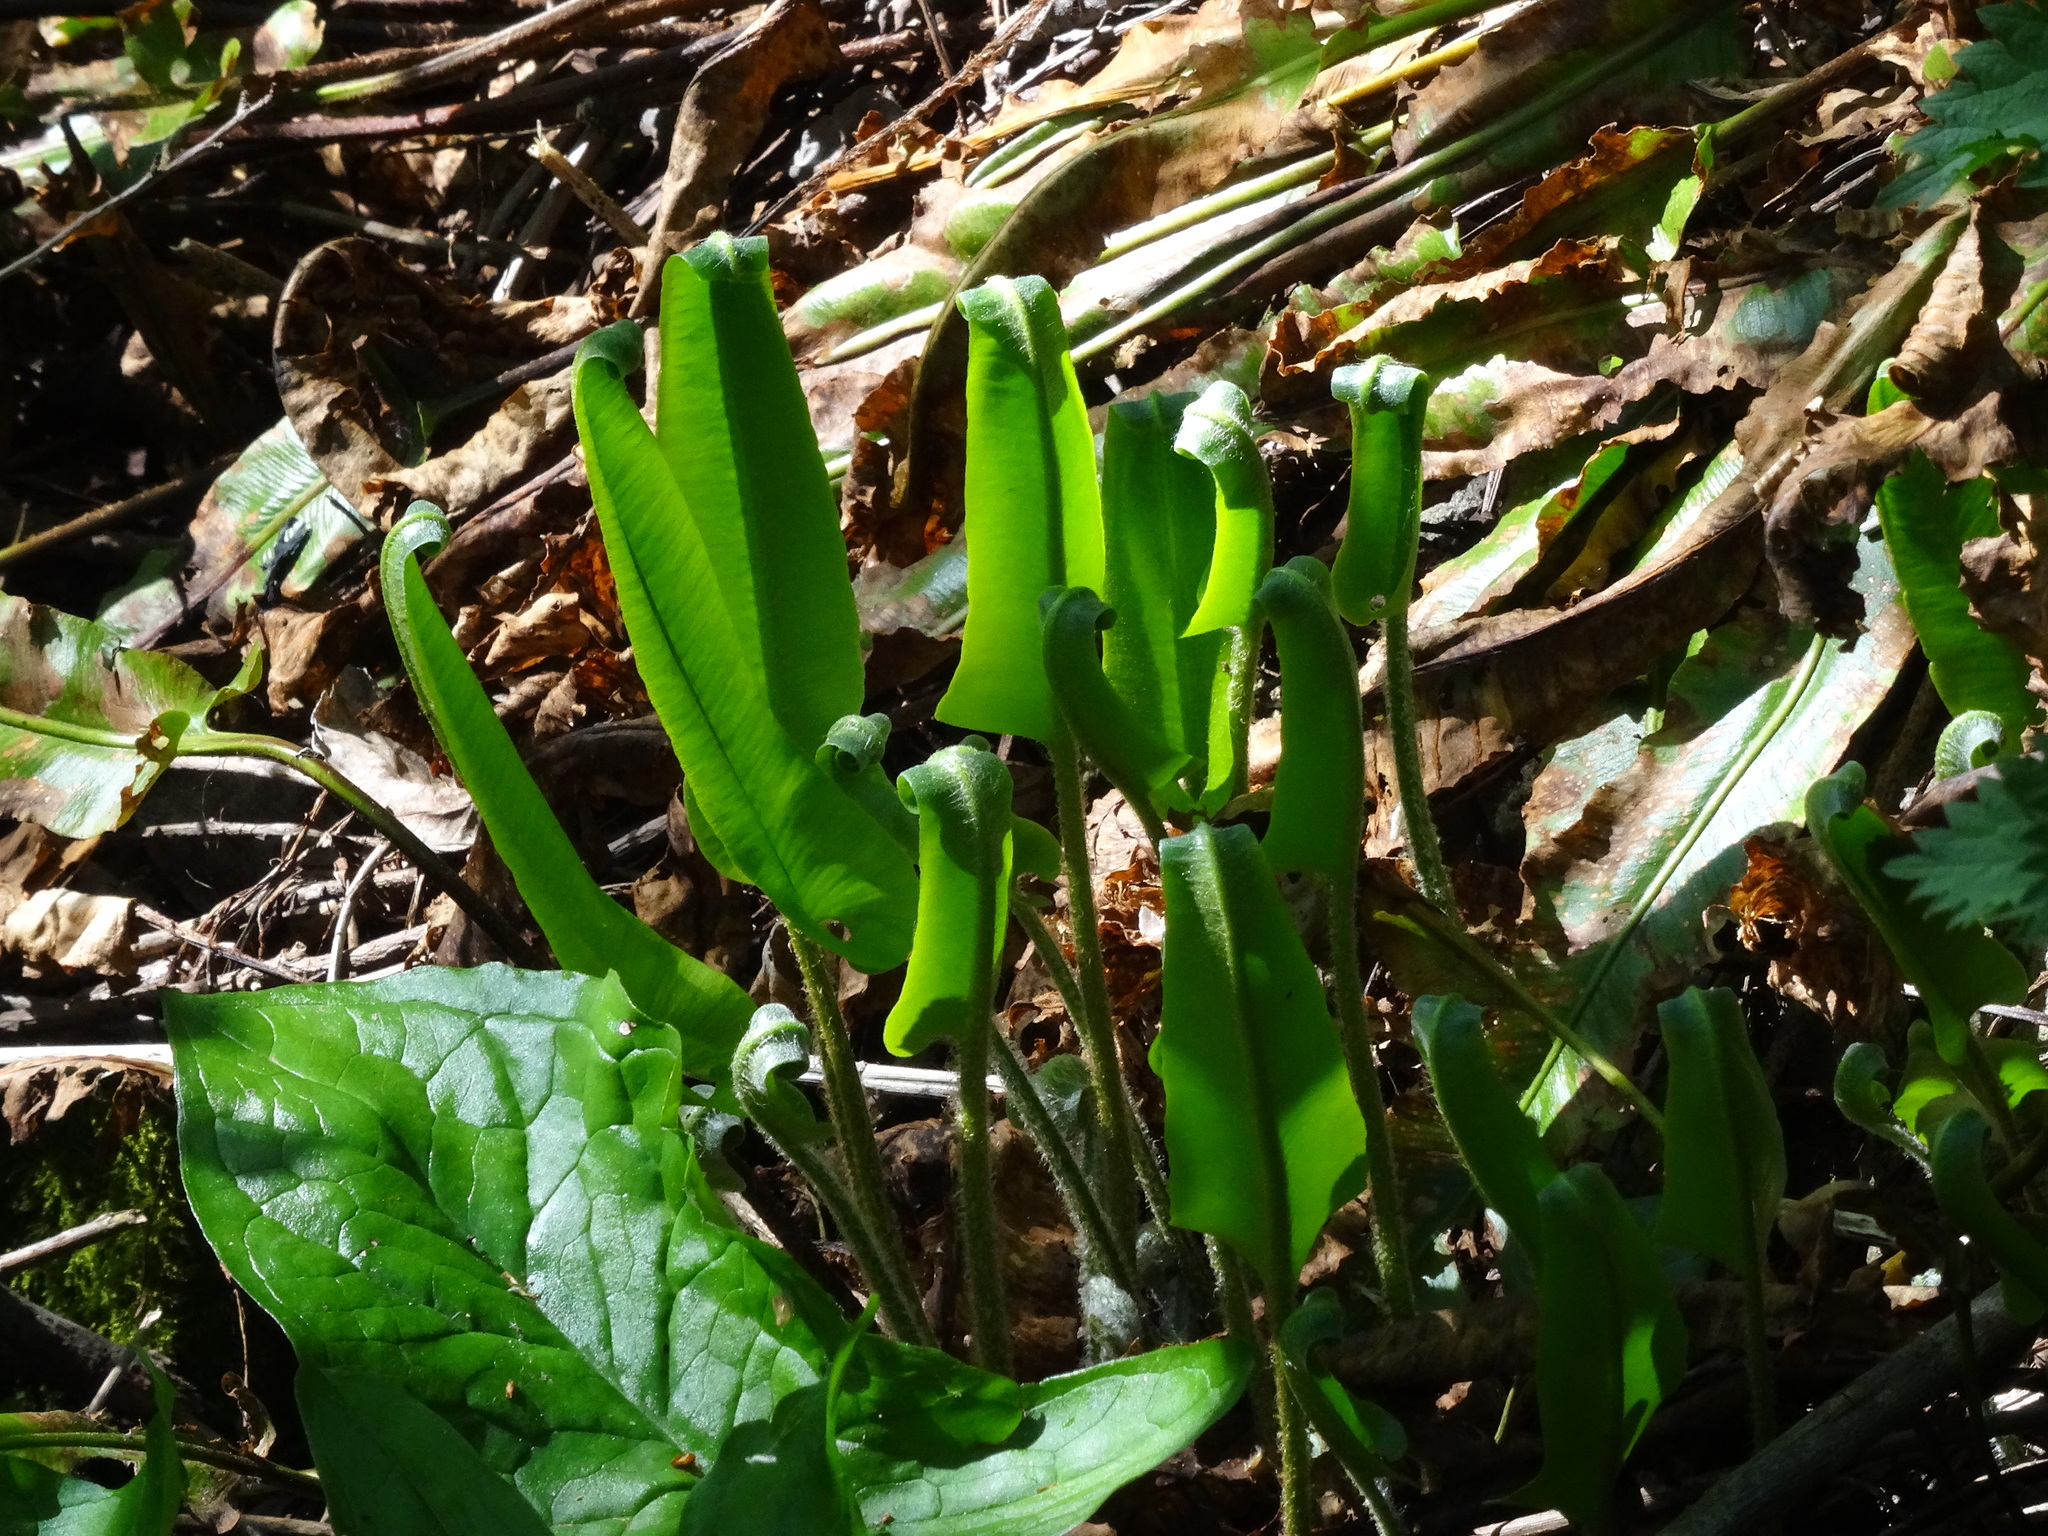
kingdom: Plantae
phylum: Tracheophyta
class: Polypodiopsida
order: Polypodiales
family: Aspleniaceae
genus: Asplenium
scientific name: Asplenium scolopendrium
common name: Hart's-tongue fern
